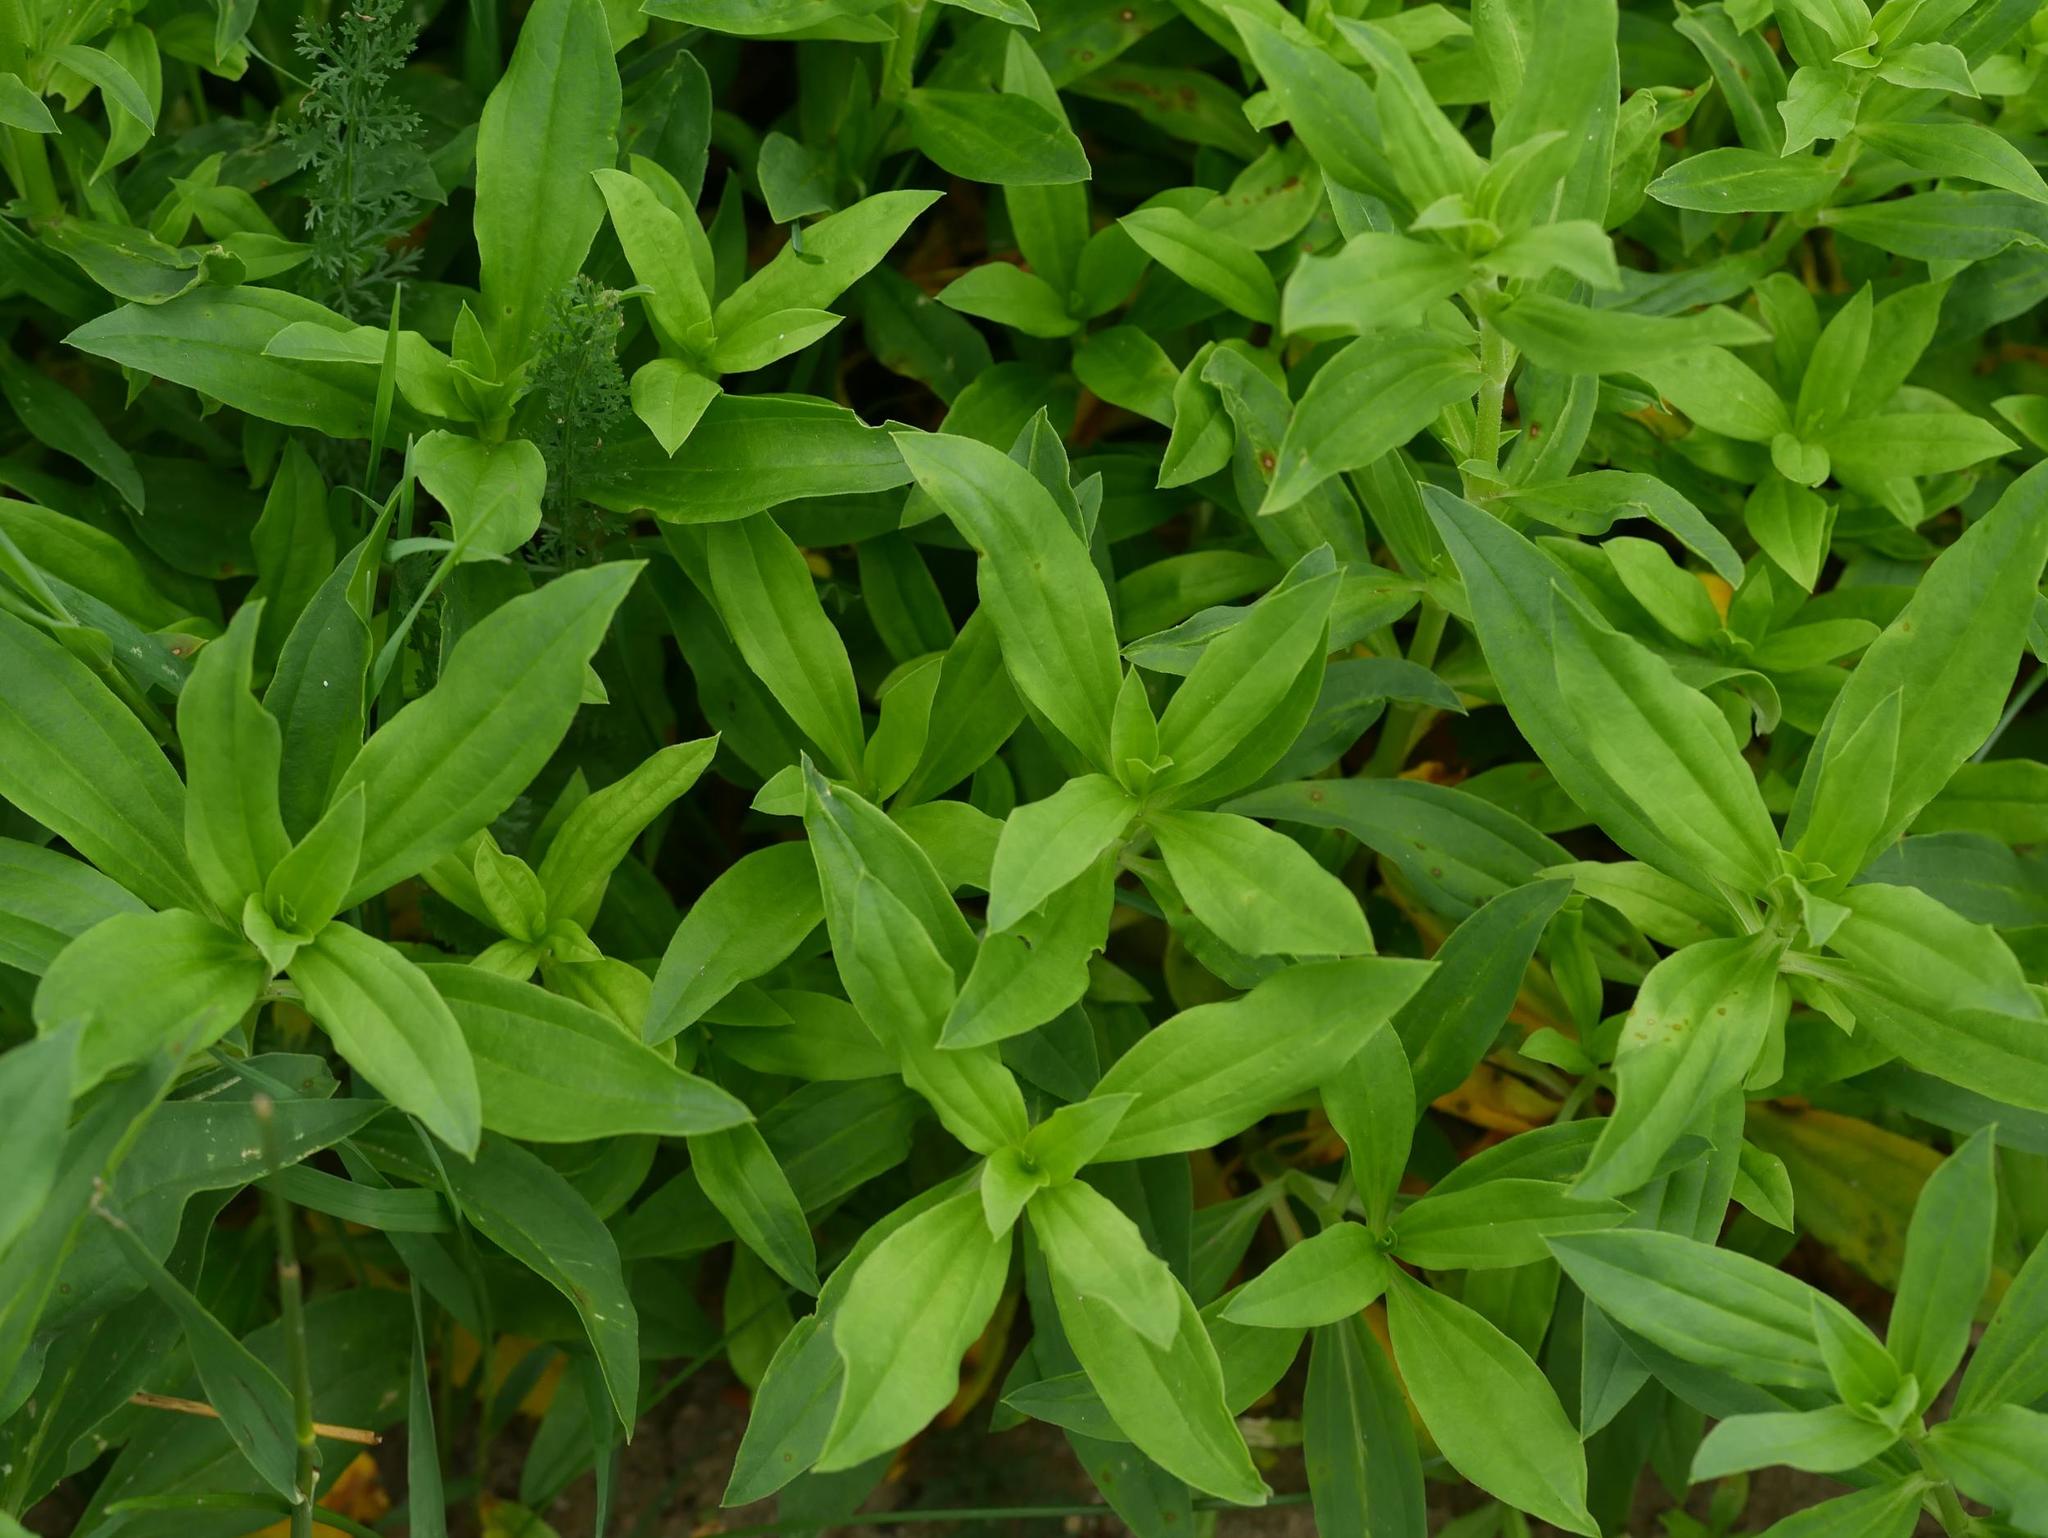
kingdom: Plantae
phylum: Tracheophyta
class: Magnoliopsida
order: Caryophyllales
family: Caryophyllaceae
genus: Saponaria
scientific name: Saponaria officinalis
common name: Soapwort
